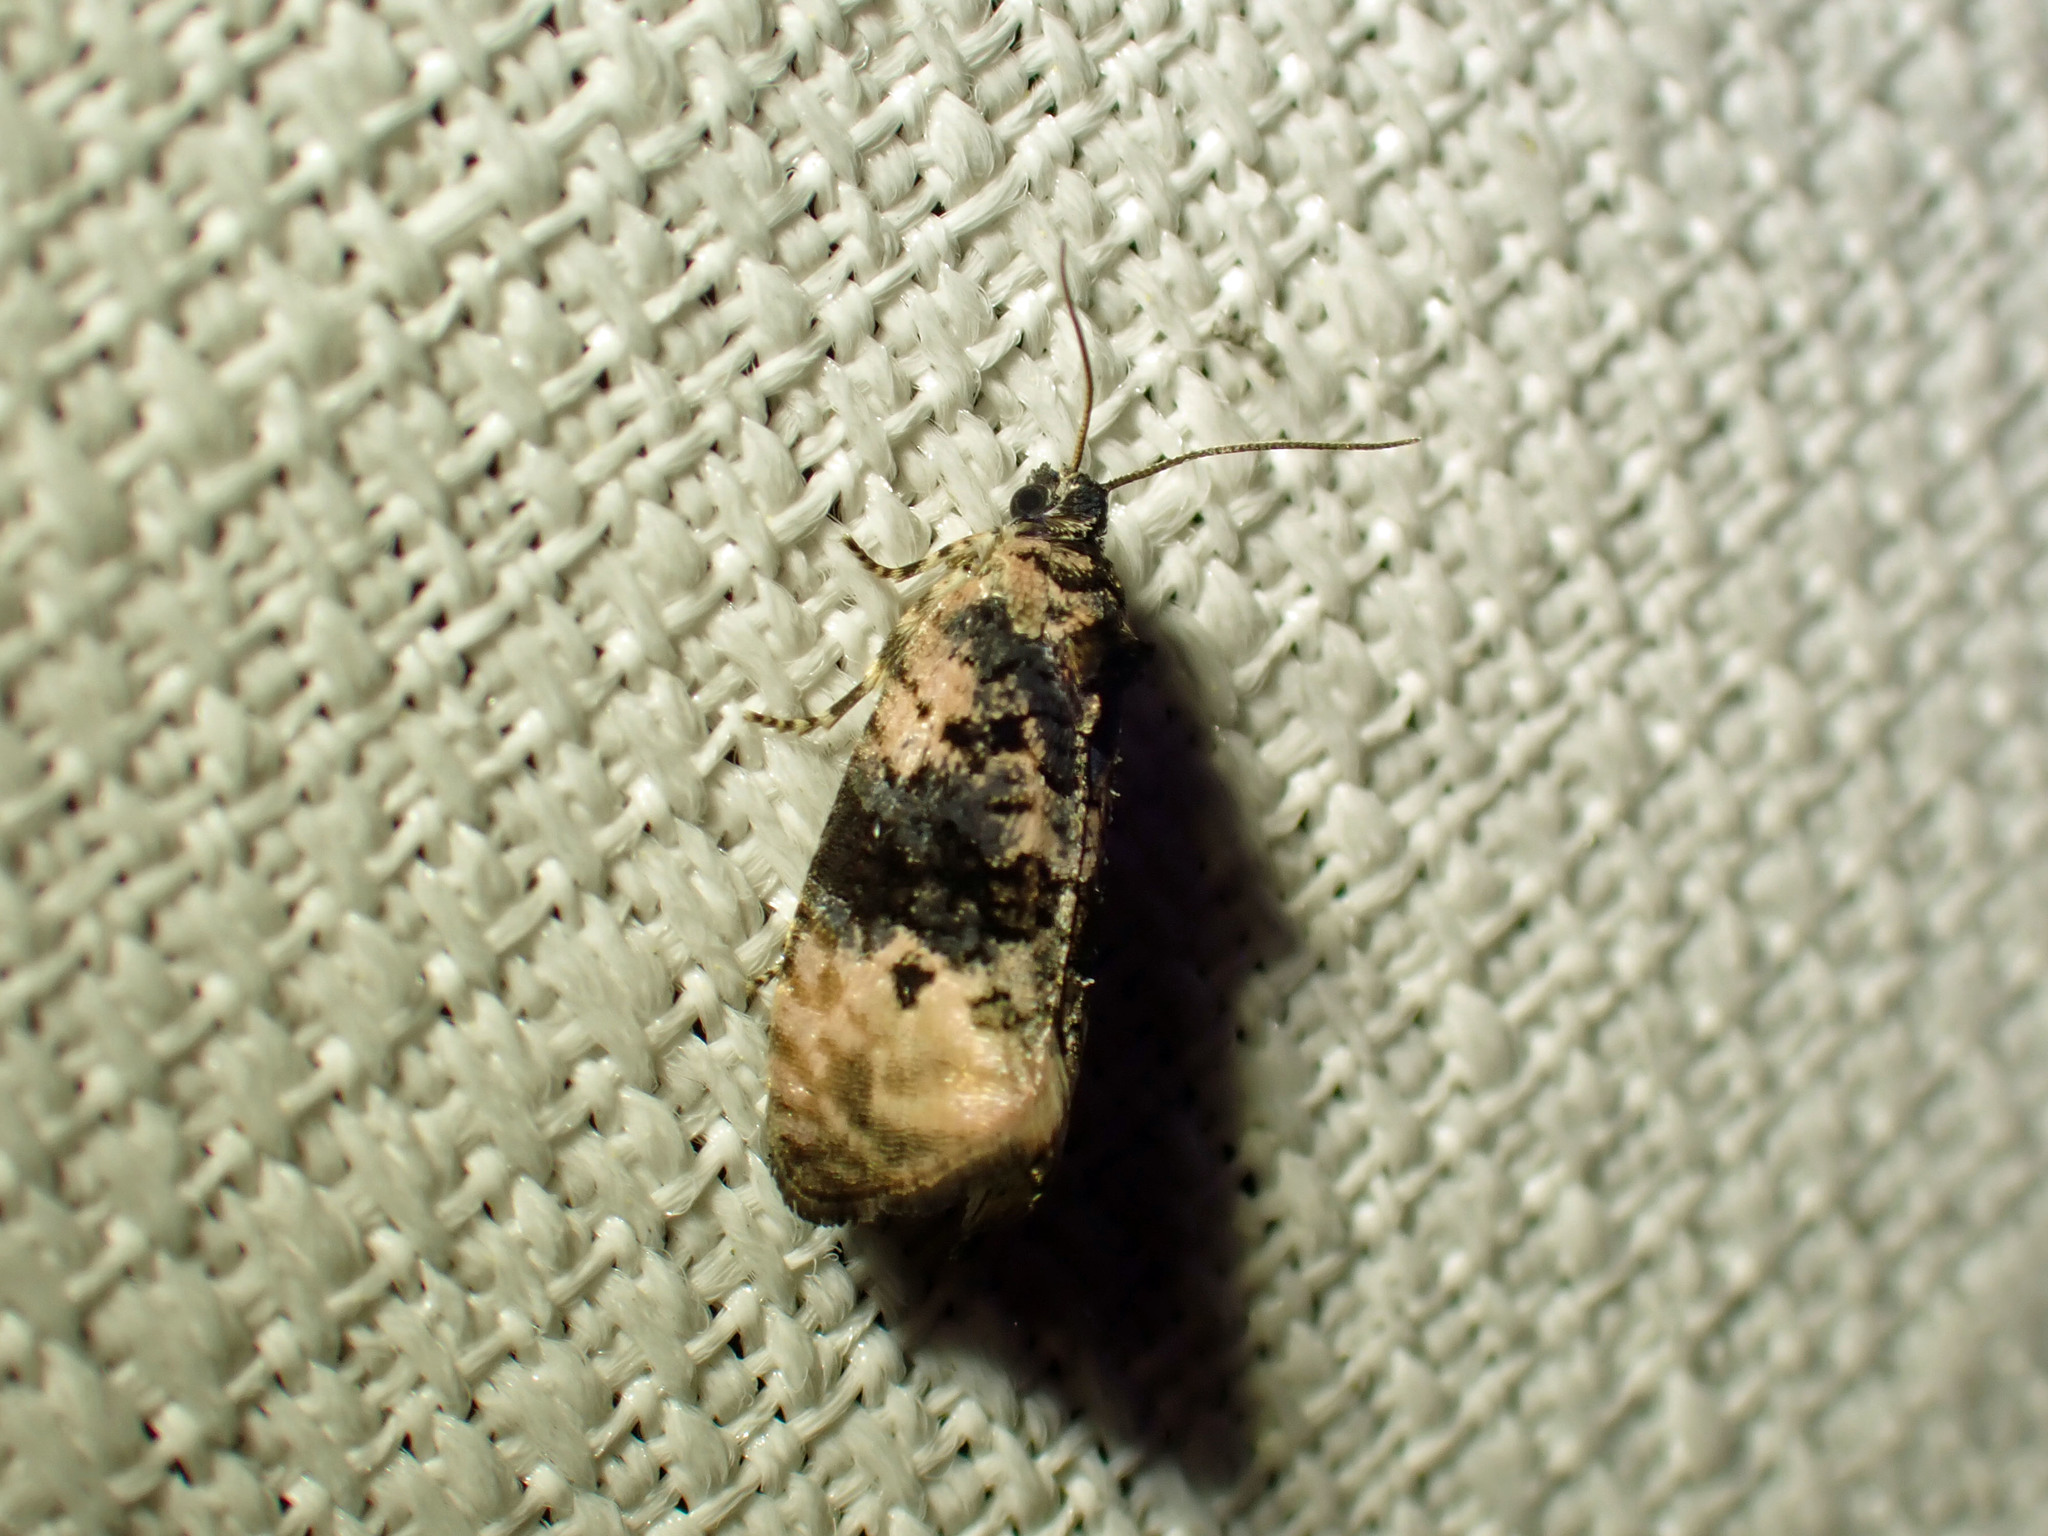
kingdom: Animalia
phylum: Arthropoda
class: Insecta
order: Lepidoptera
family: Tortricidae
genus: Hedya
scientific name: Hedya separatana
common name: Pink-washed leafroller moth
